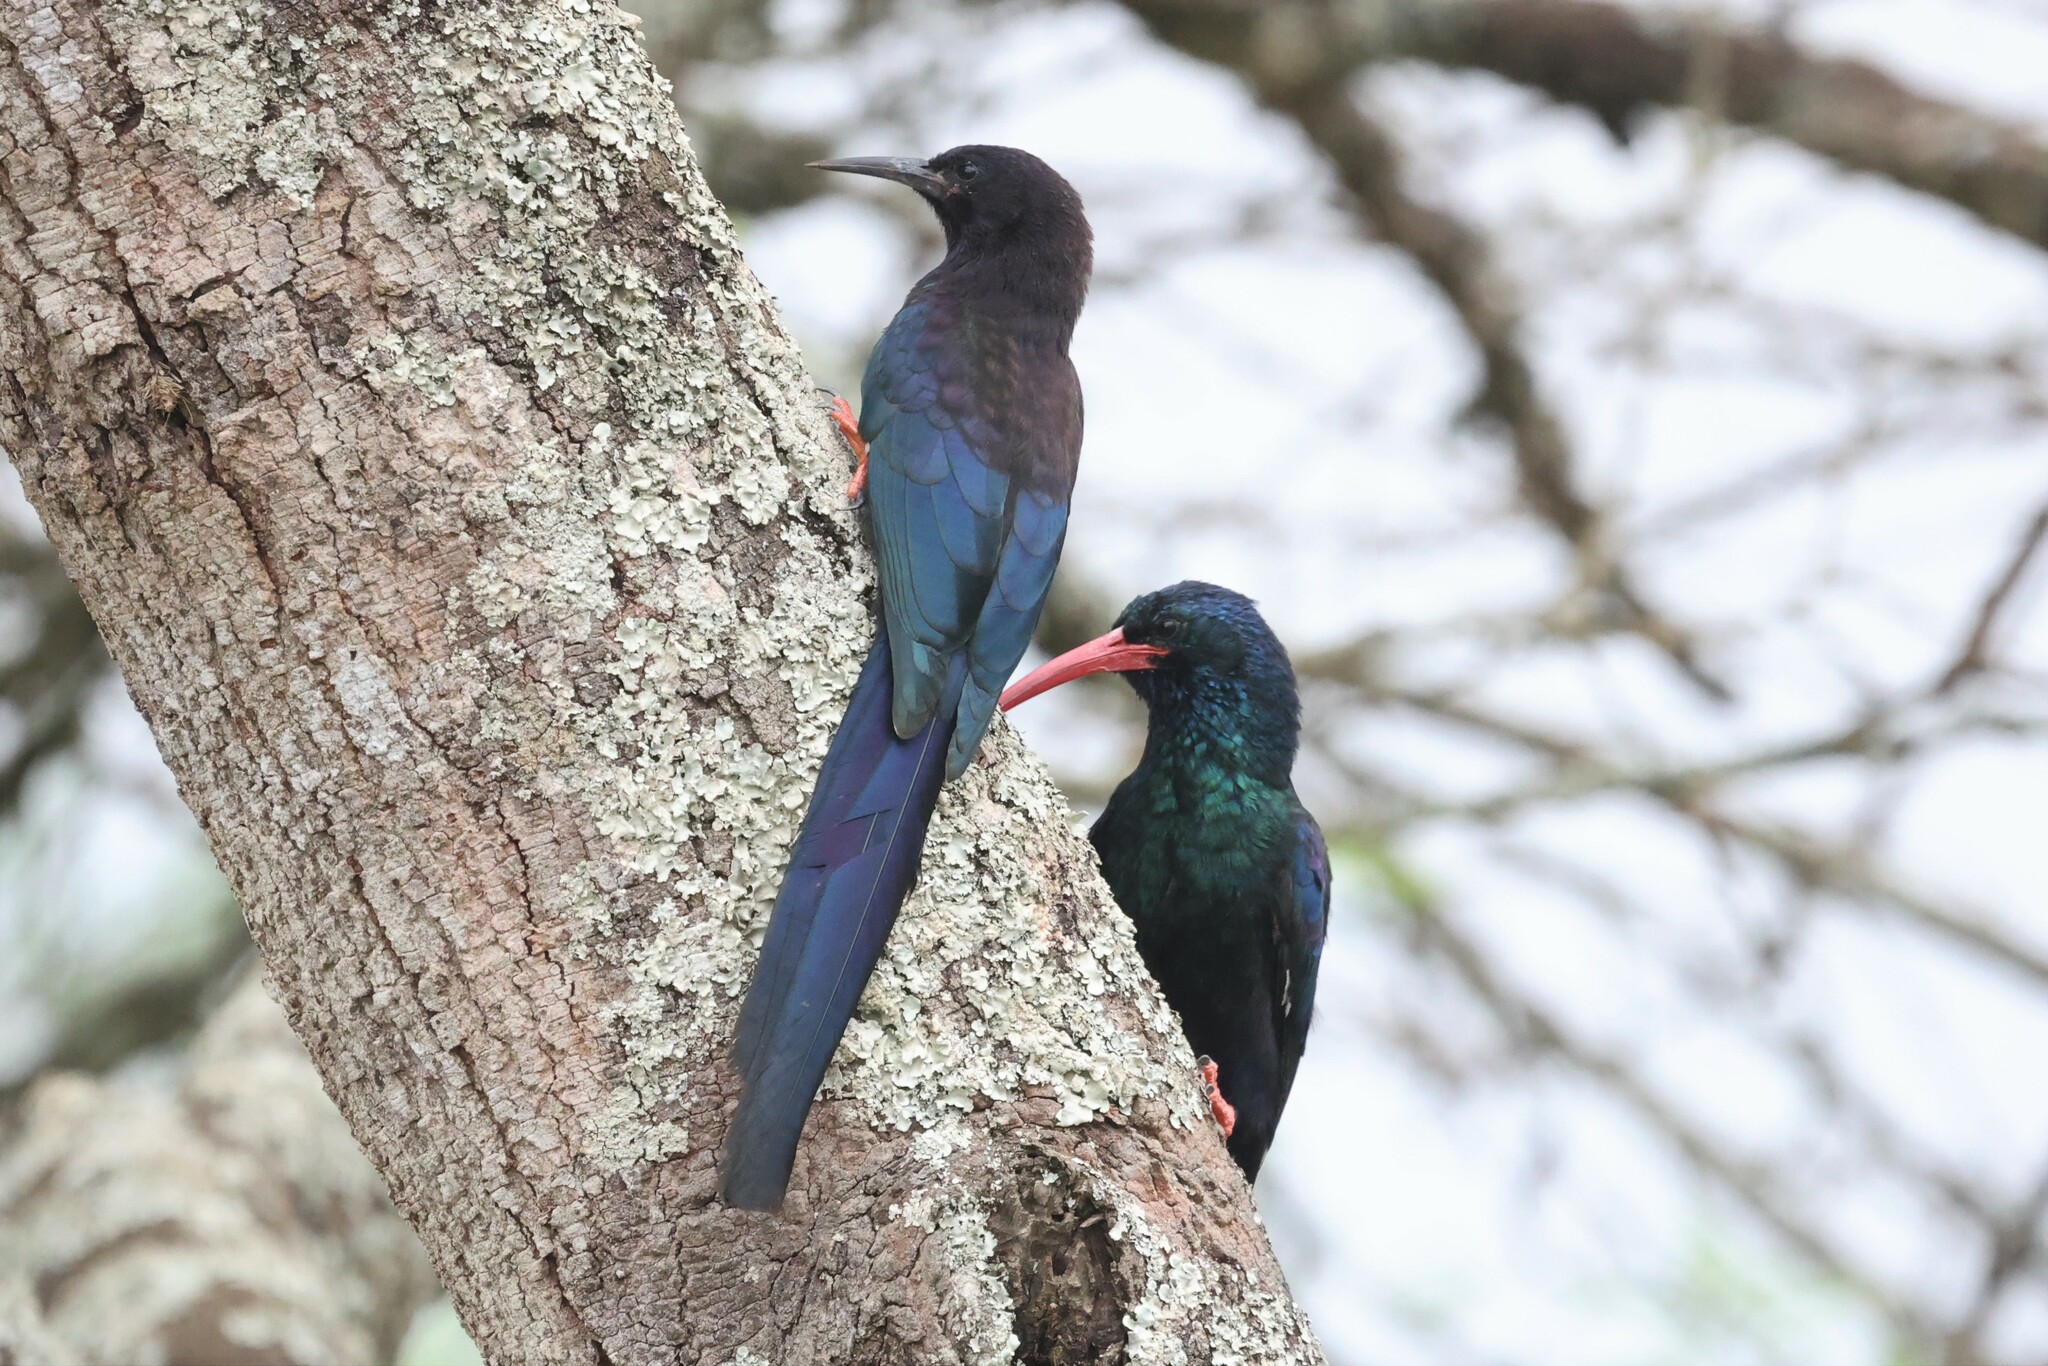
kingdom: Animalia
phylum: Chordata
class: Aves
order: Bucerotiformes
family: Phoeniculidae
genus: Phoeniculus
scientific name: Phoeniculus purpureus
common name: Green woodhoopoe
